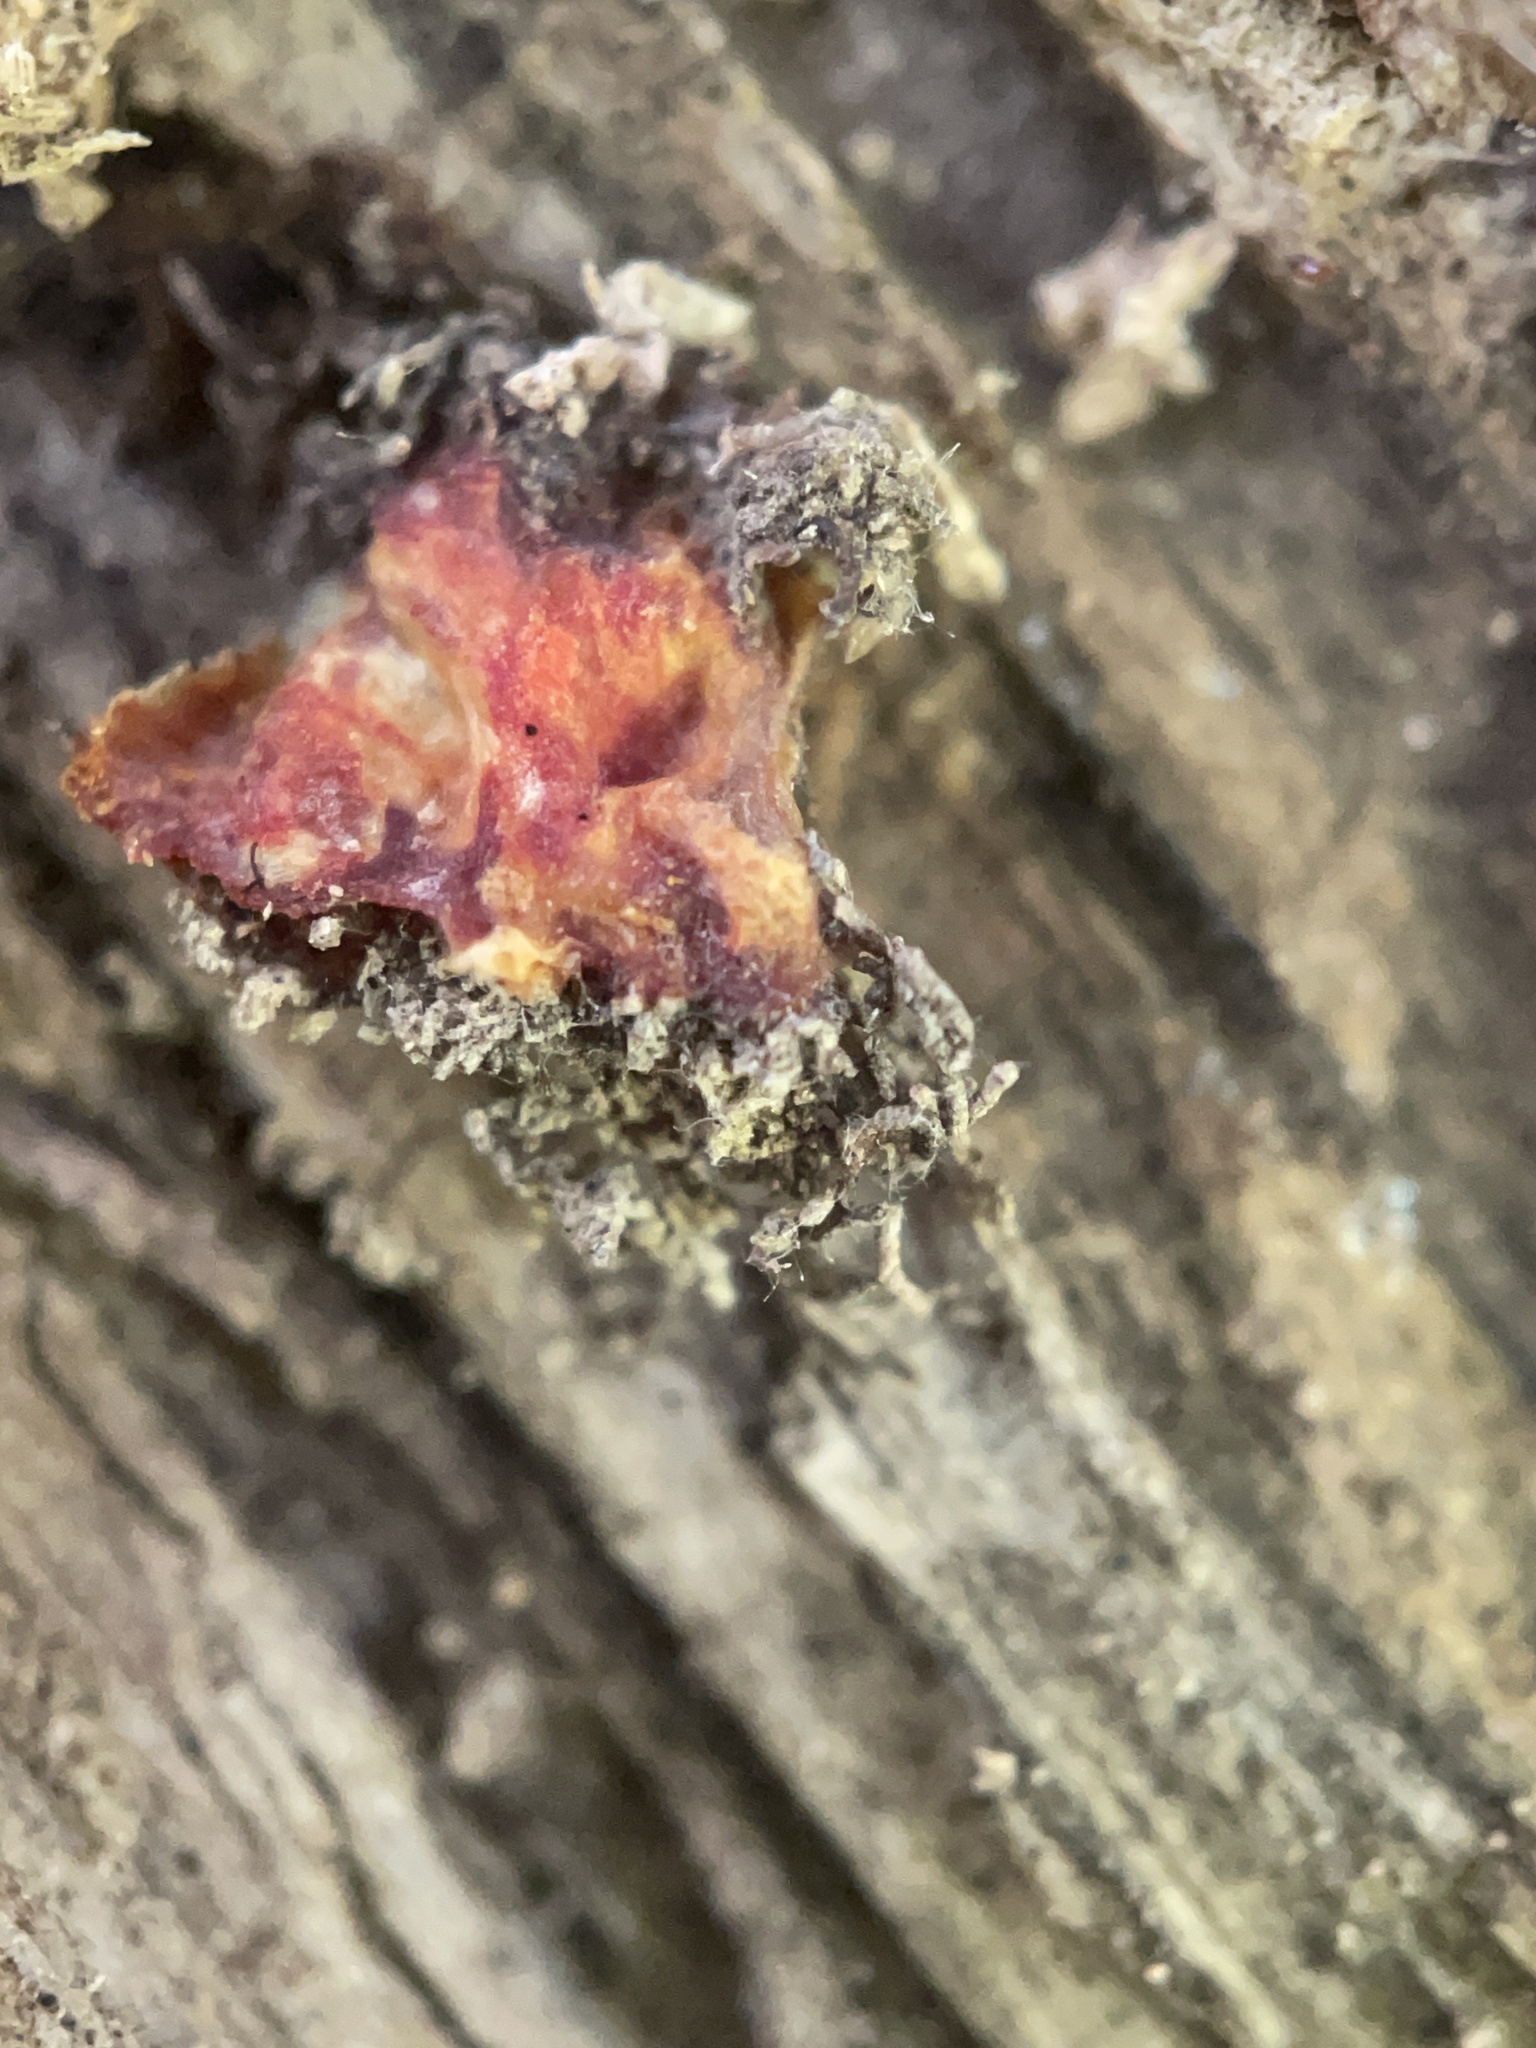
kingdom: Fungi
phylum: Ascomycota
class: Sordariomycetes
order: Hypocreales
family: Ophiocordycipitaceae
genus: Polycephalomyces
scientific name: Polycephalomyces tomentosus
